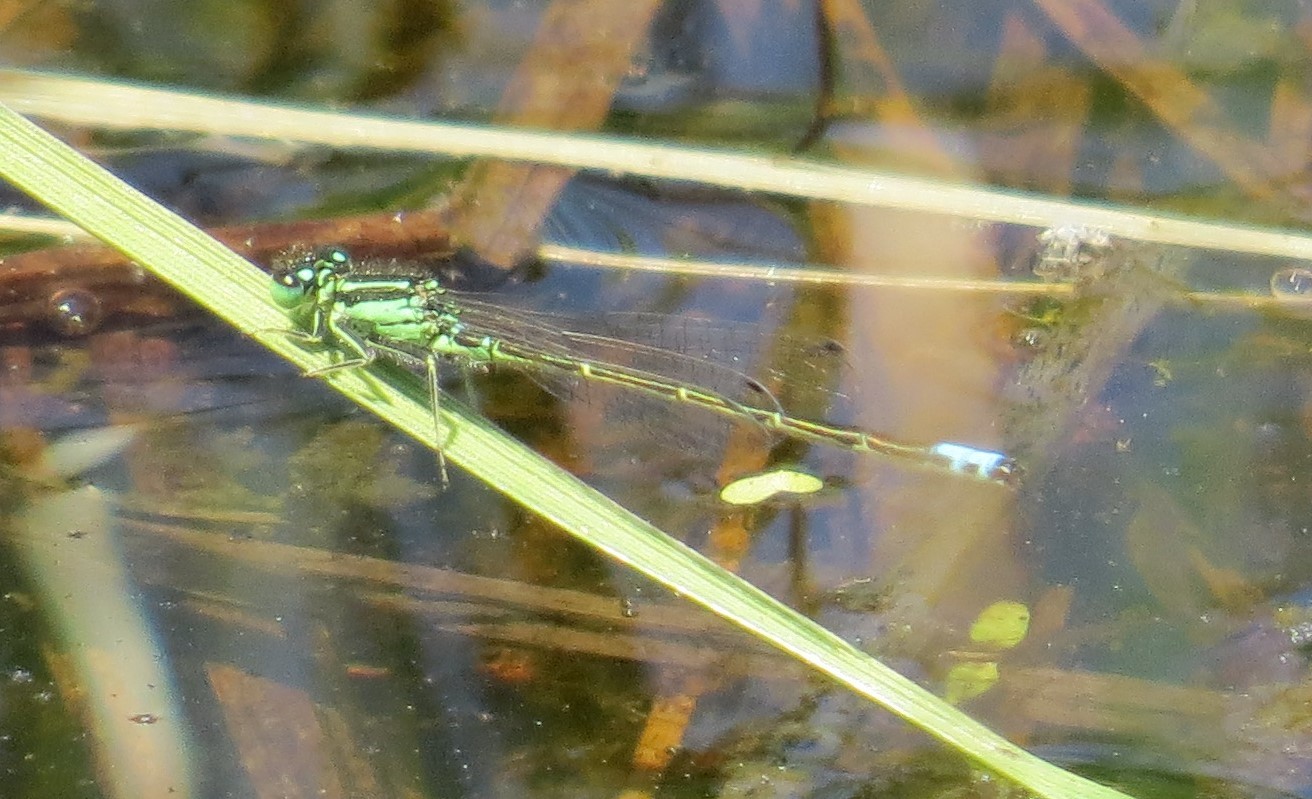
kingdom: Animalia
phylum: Arthropoda
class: Insecta
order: Odonata
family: Coenagrionidae
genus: Ischnura
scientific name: Ischnura verticalis
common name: Eastern forktail
